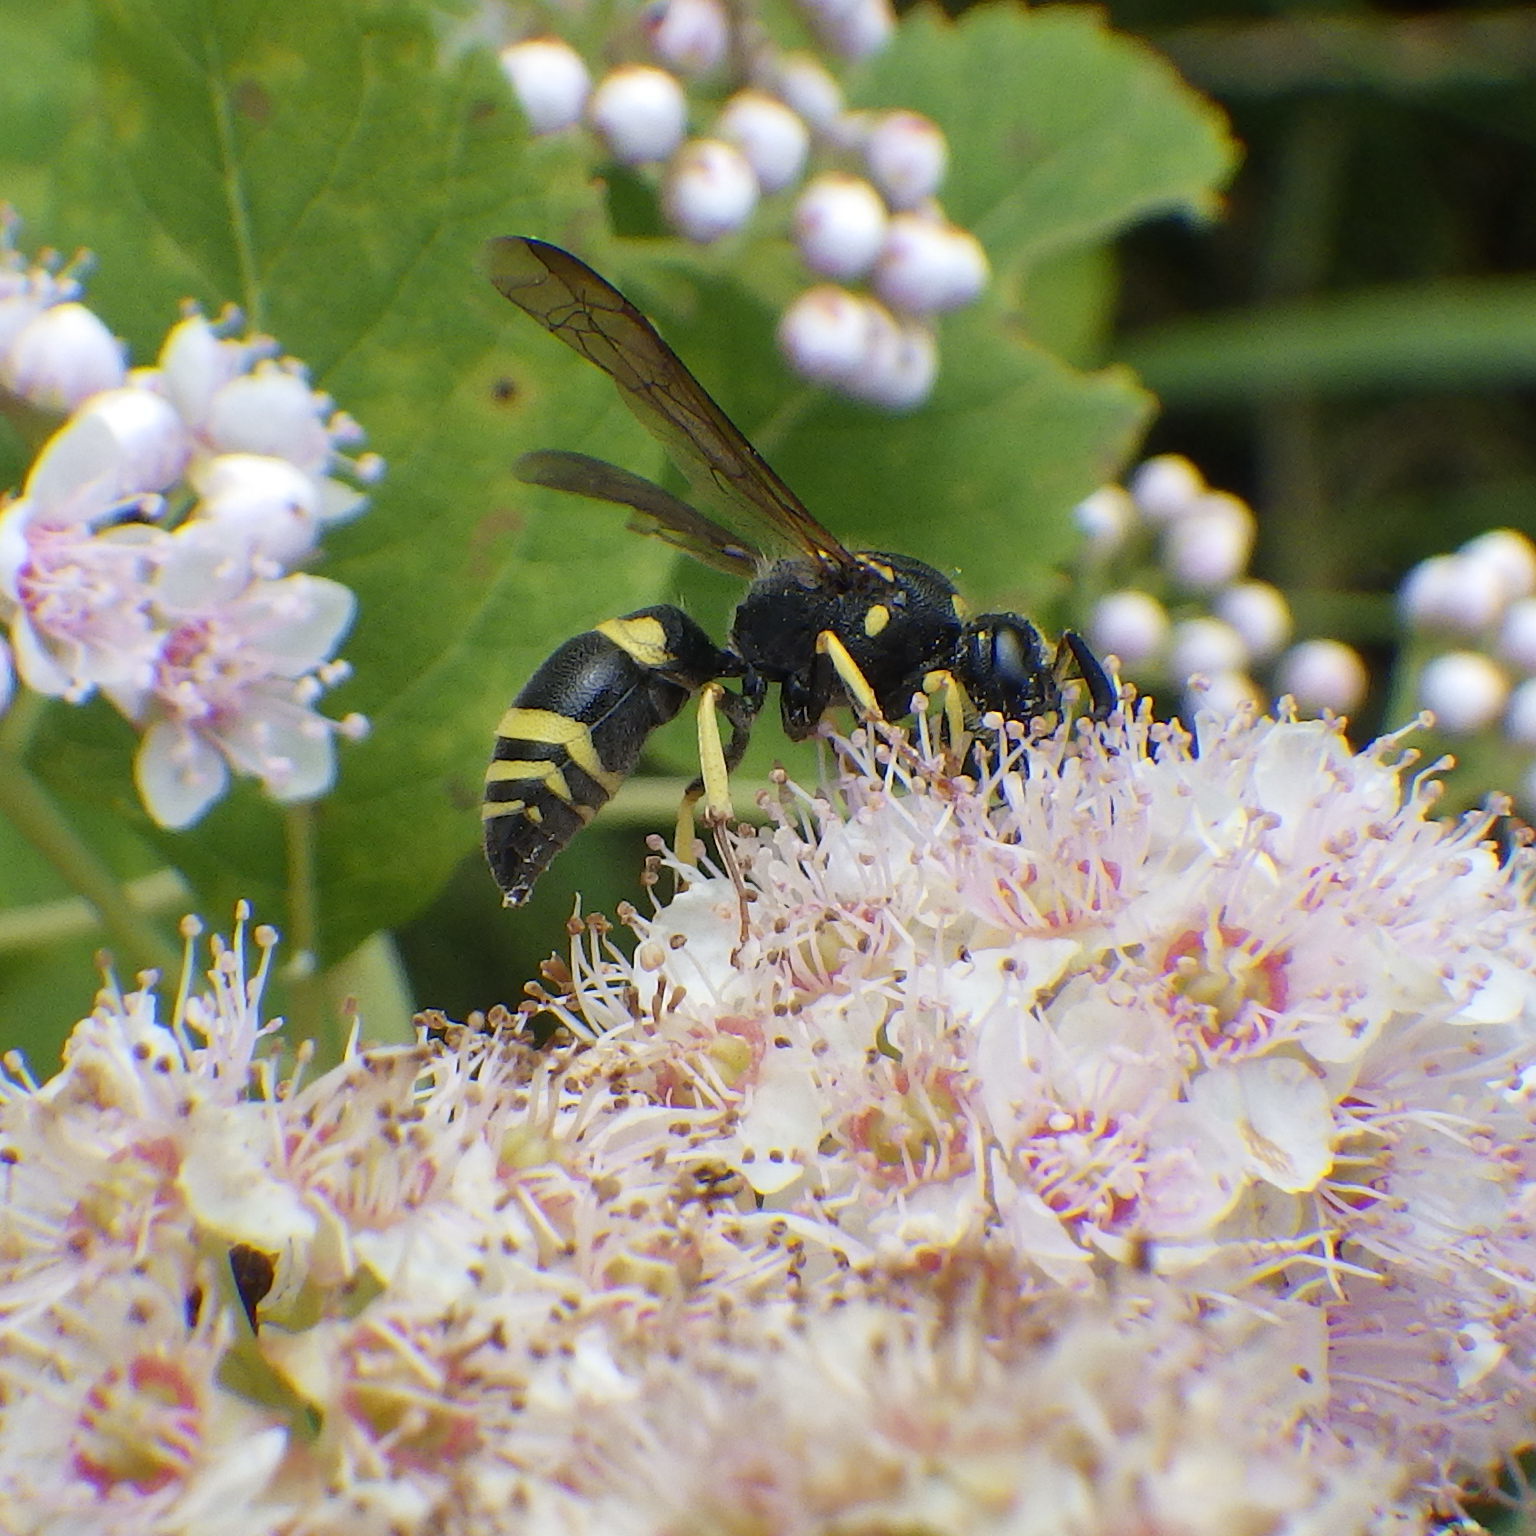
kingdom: Animalia
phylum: Arthropoda
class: Insecta
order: Hymenoptera
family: Vespidae
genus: Ancistrocerus
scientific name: Ancistrocerus
